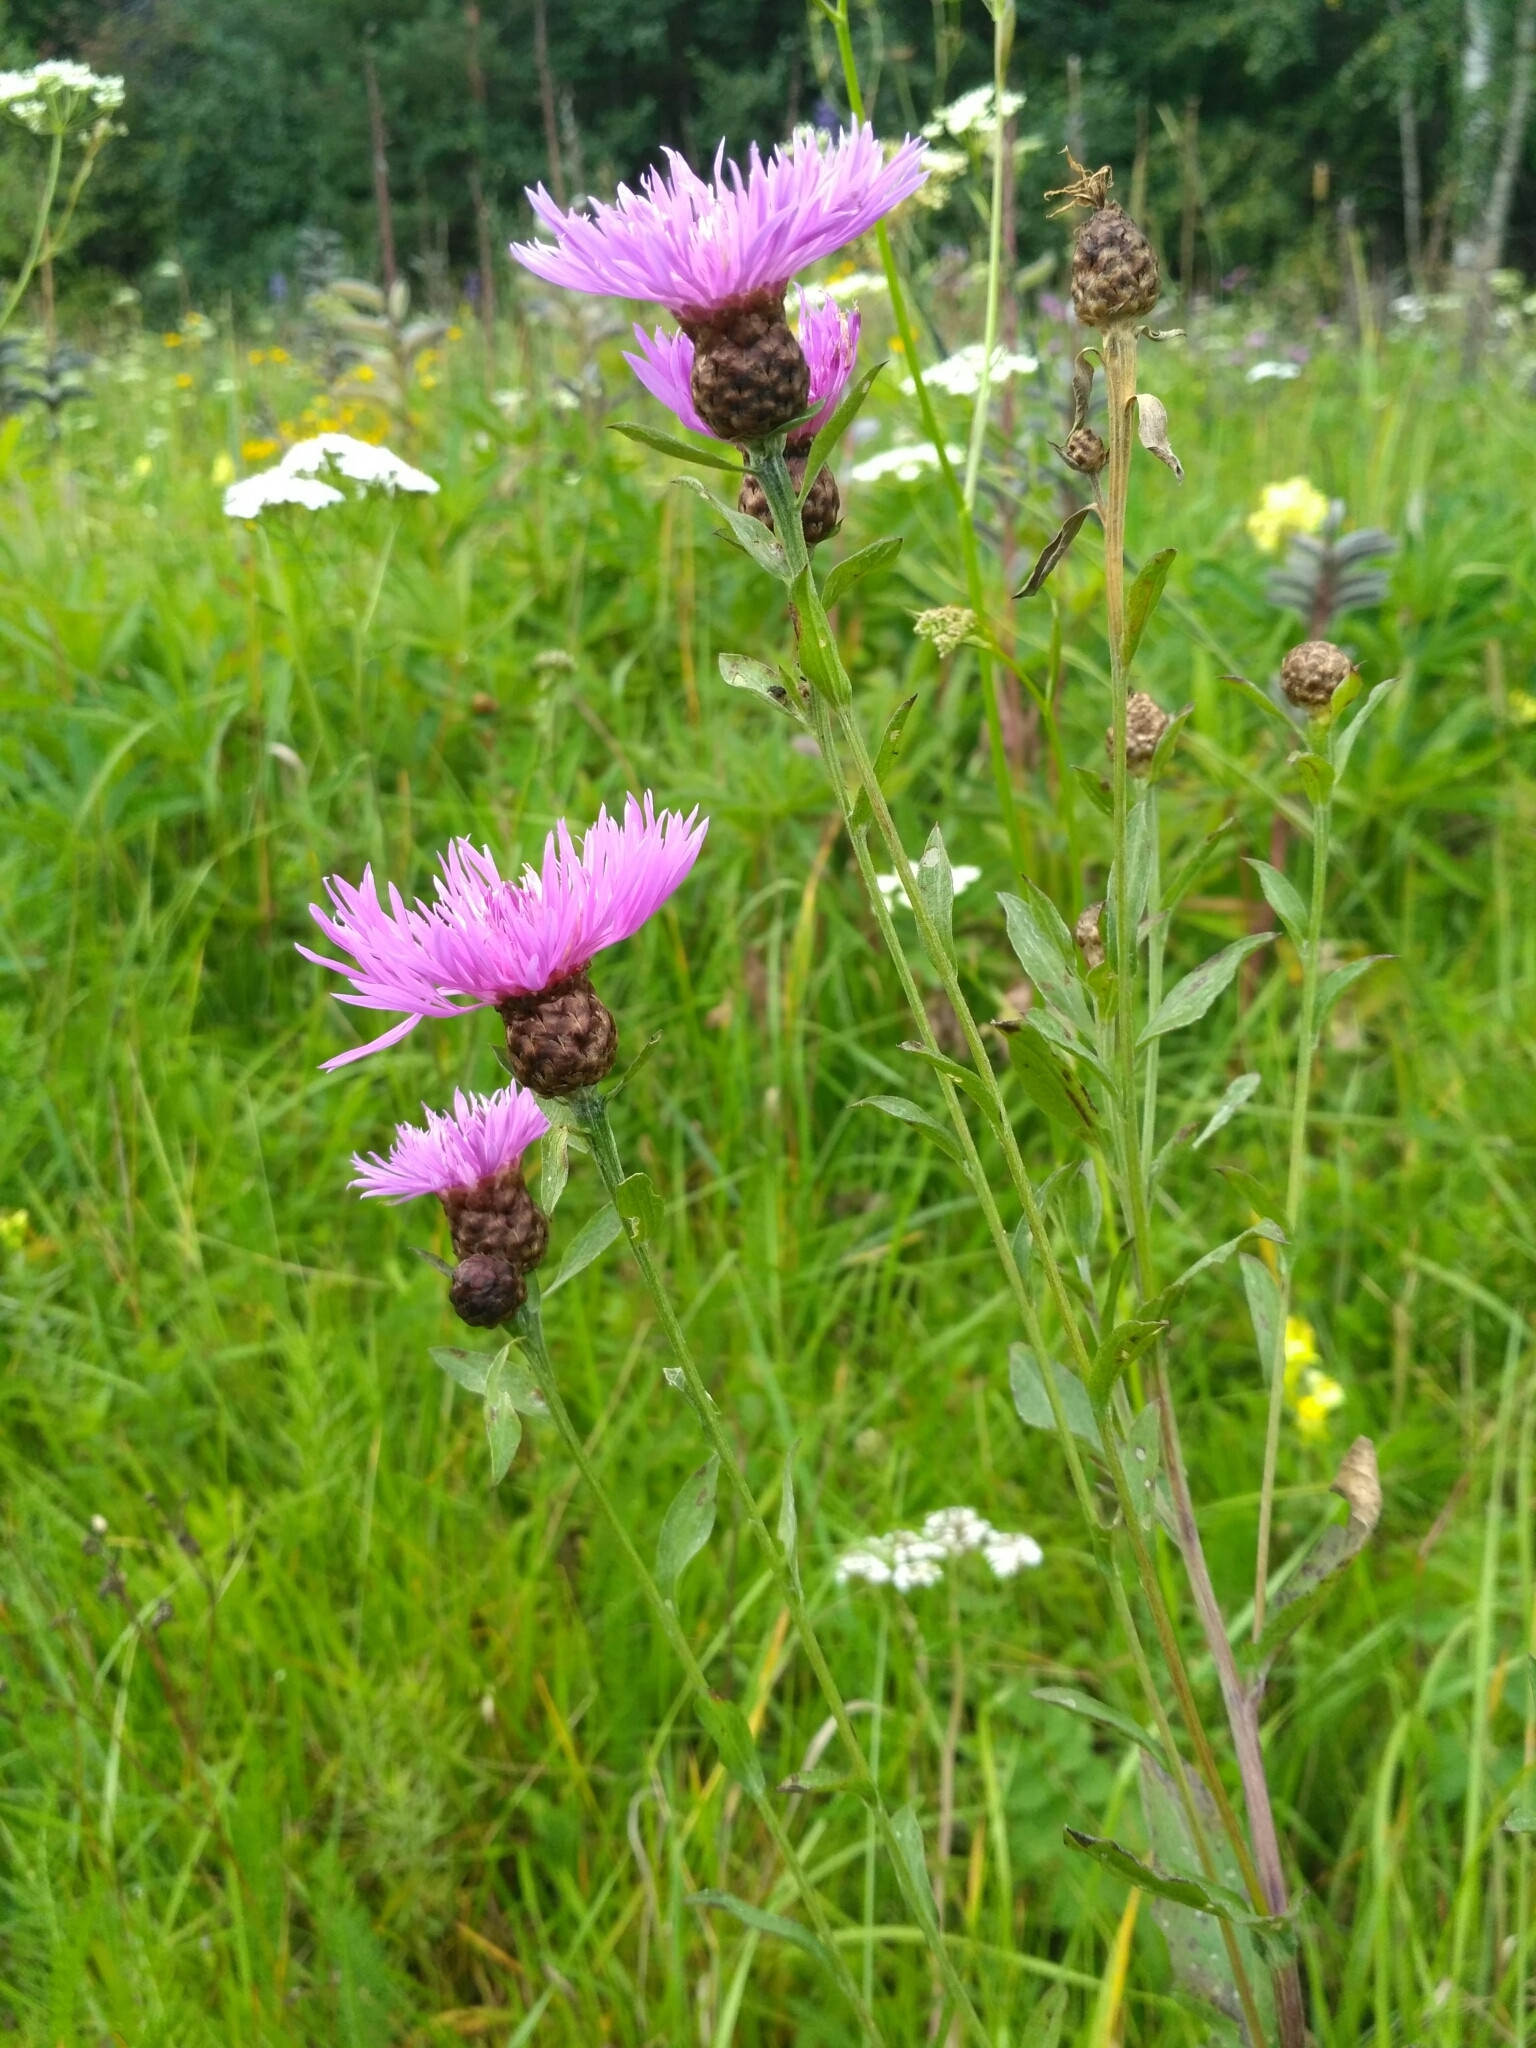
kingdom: Plantae
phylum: Tracheophyta
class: Magnoliopsida
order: Asterales
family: Asteraceae
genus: Centaurea
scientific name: Centaurea jacea
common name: Brown knapweed
